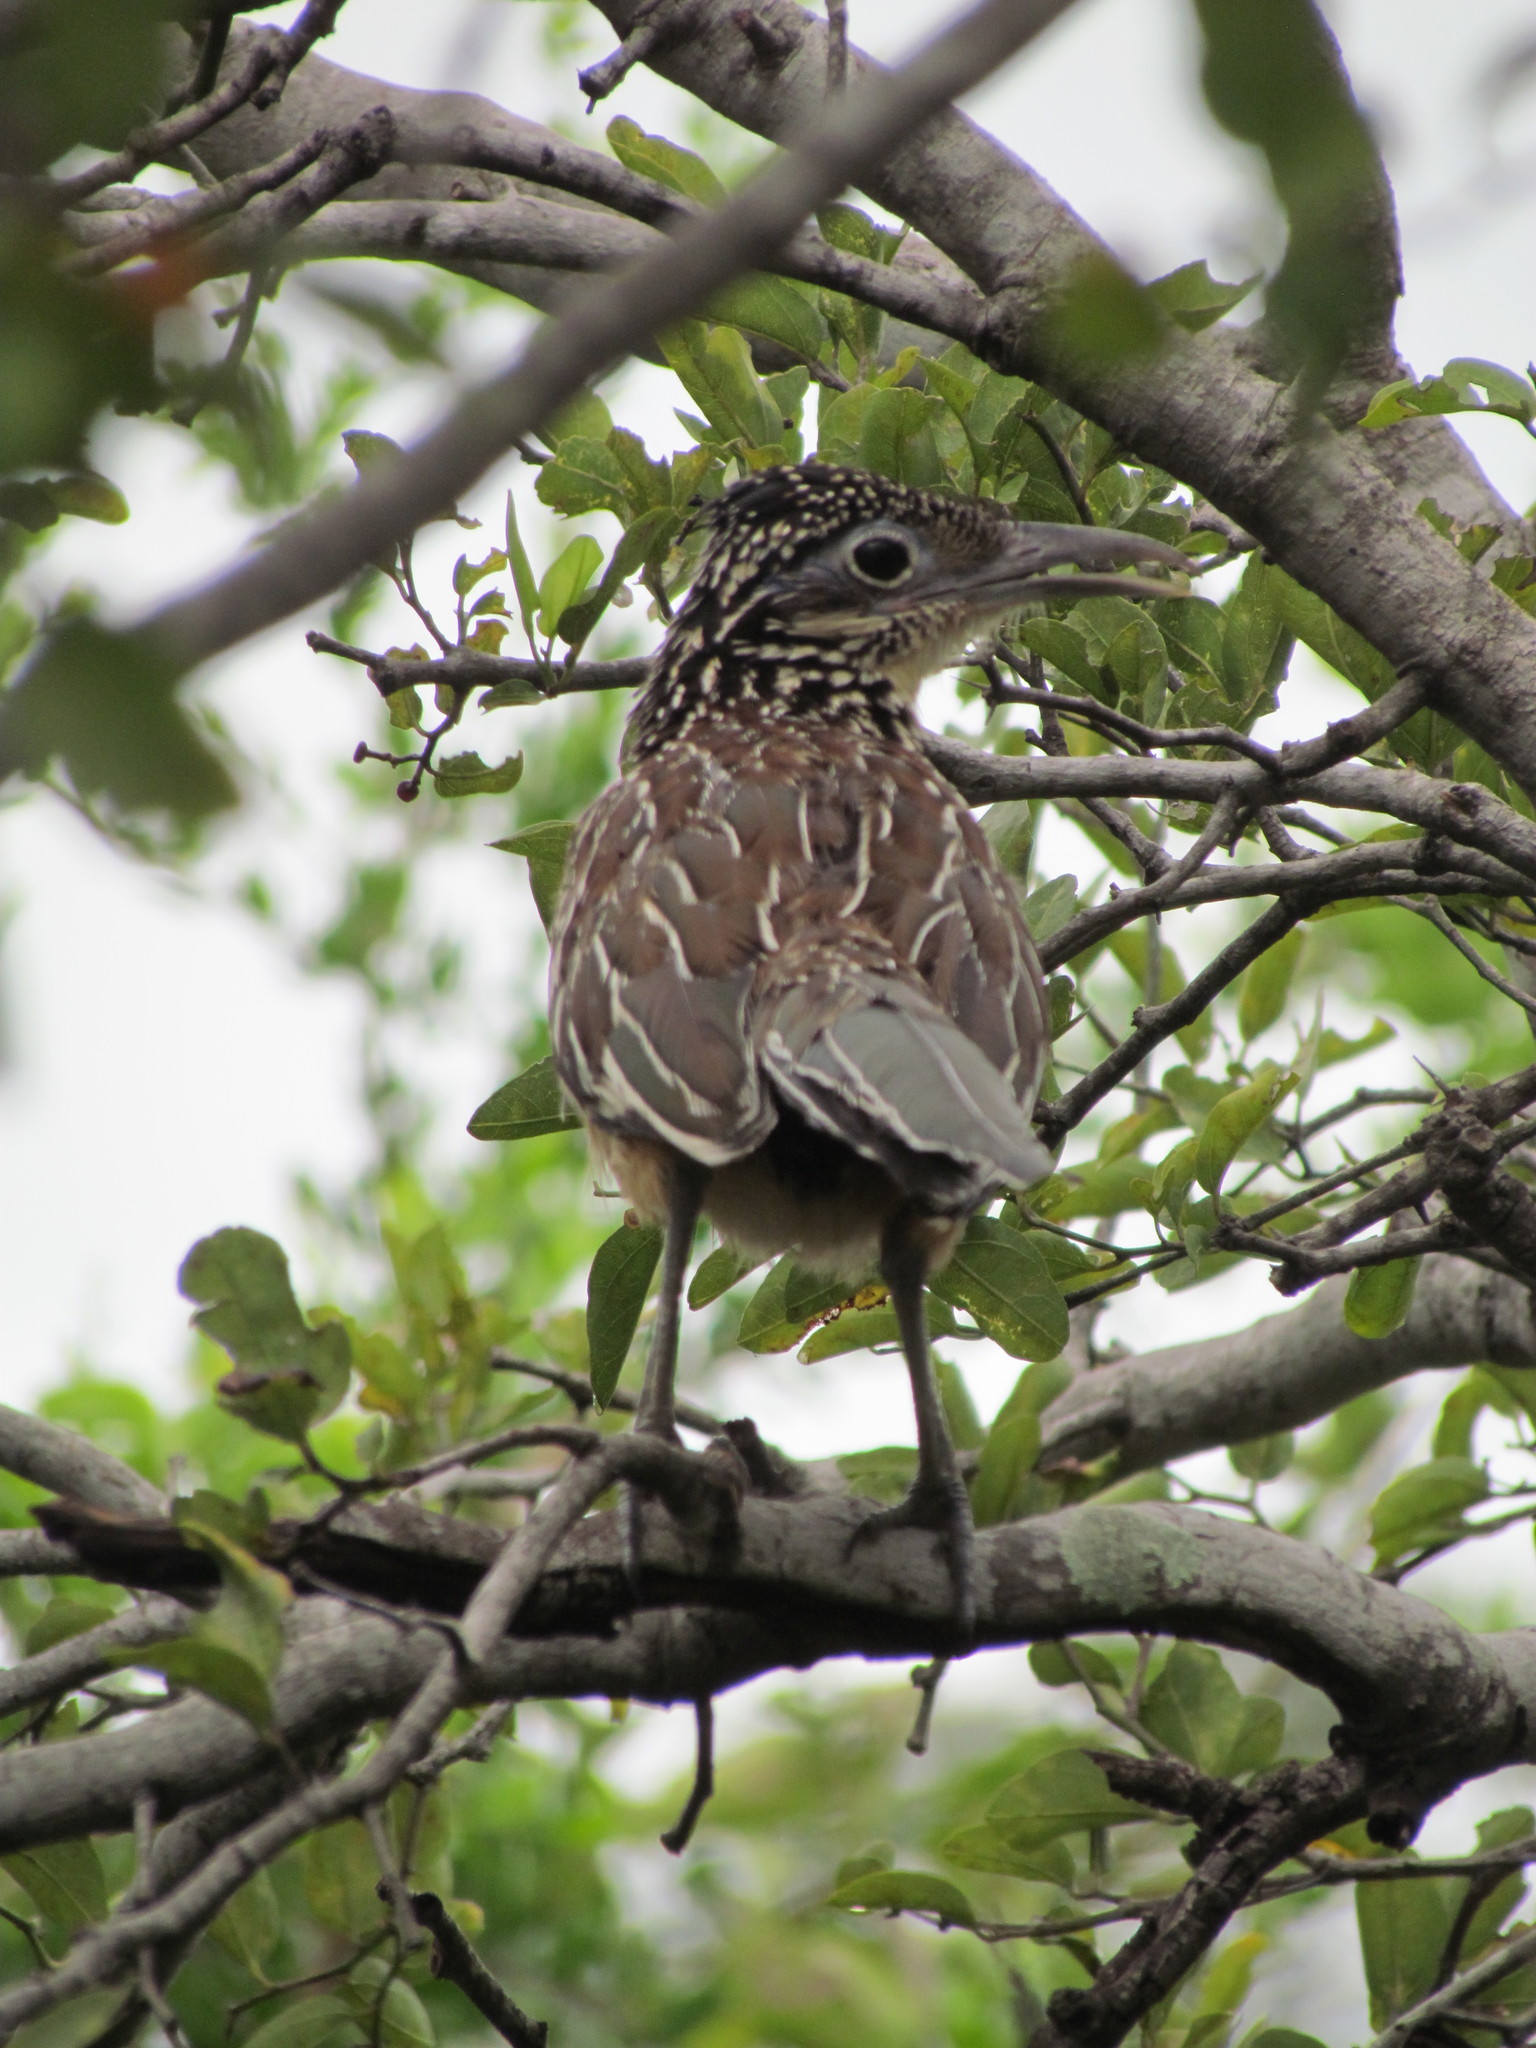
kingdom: Animalia
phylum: Chordata
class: Aves
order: Cuculiformes
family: Cuculidae
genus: Geococcyx
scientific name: Geococcyx velox
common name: Lesser roadrunner
